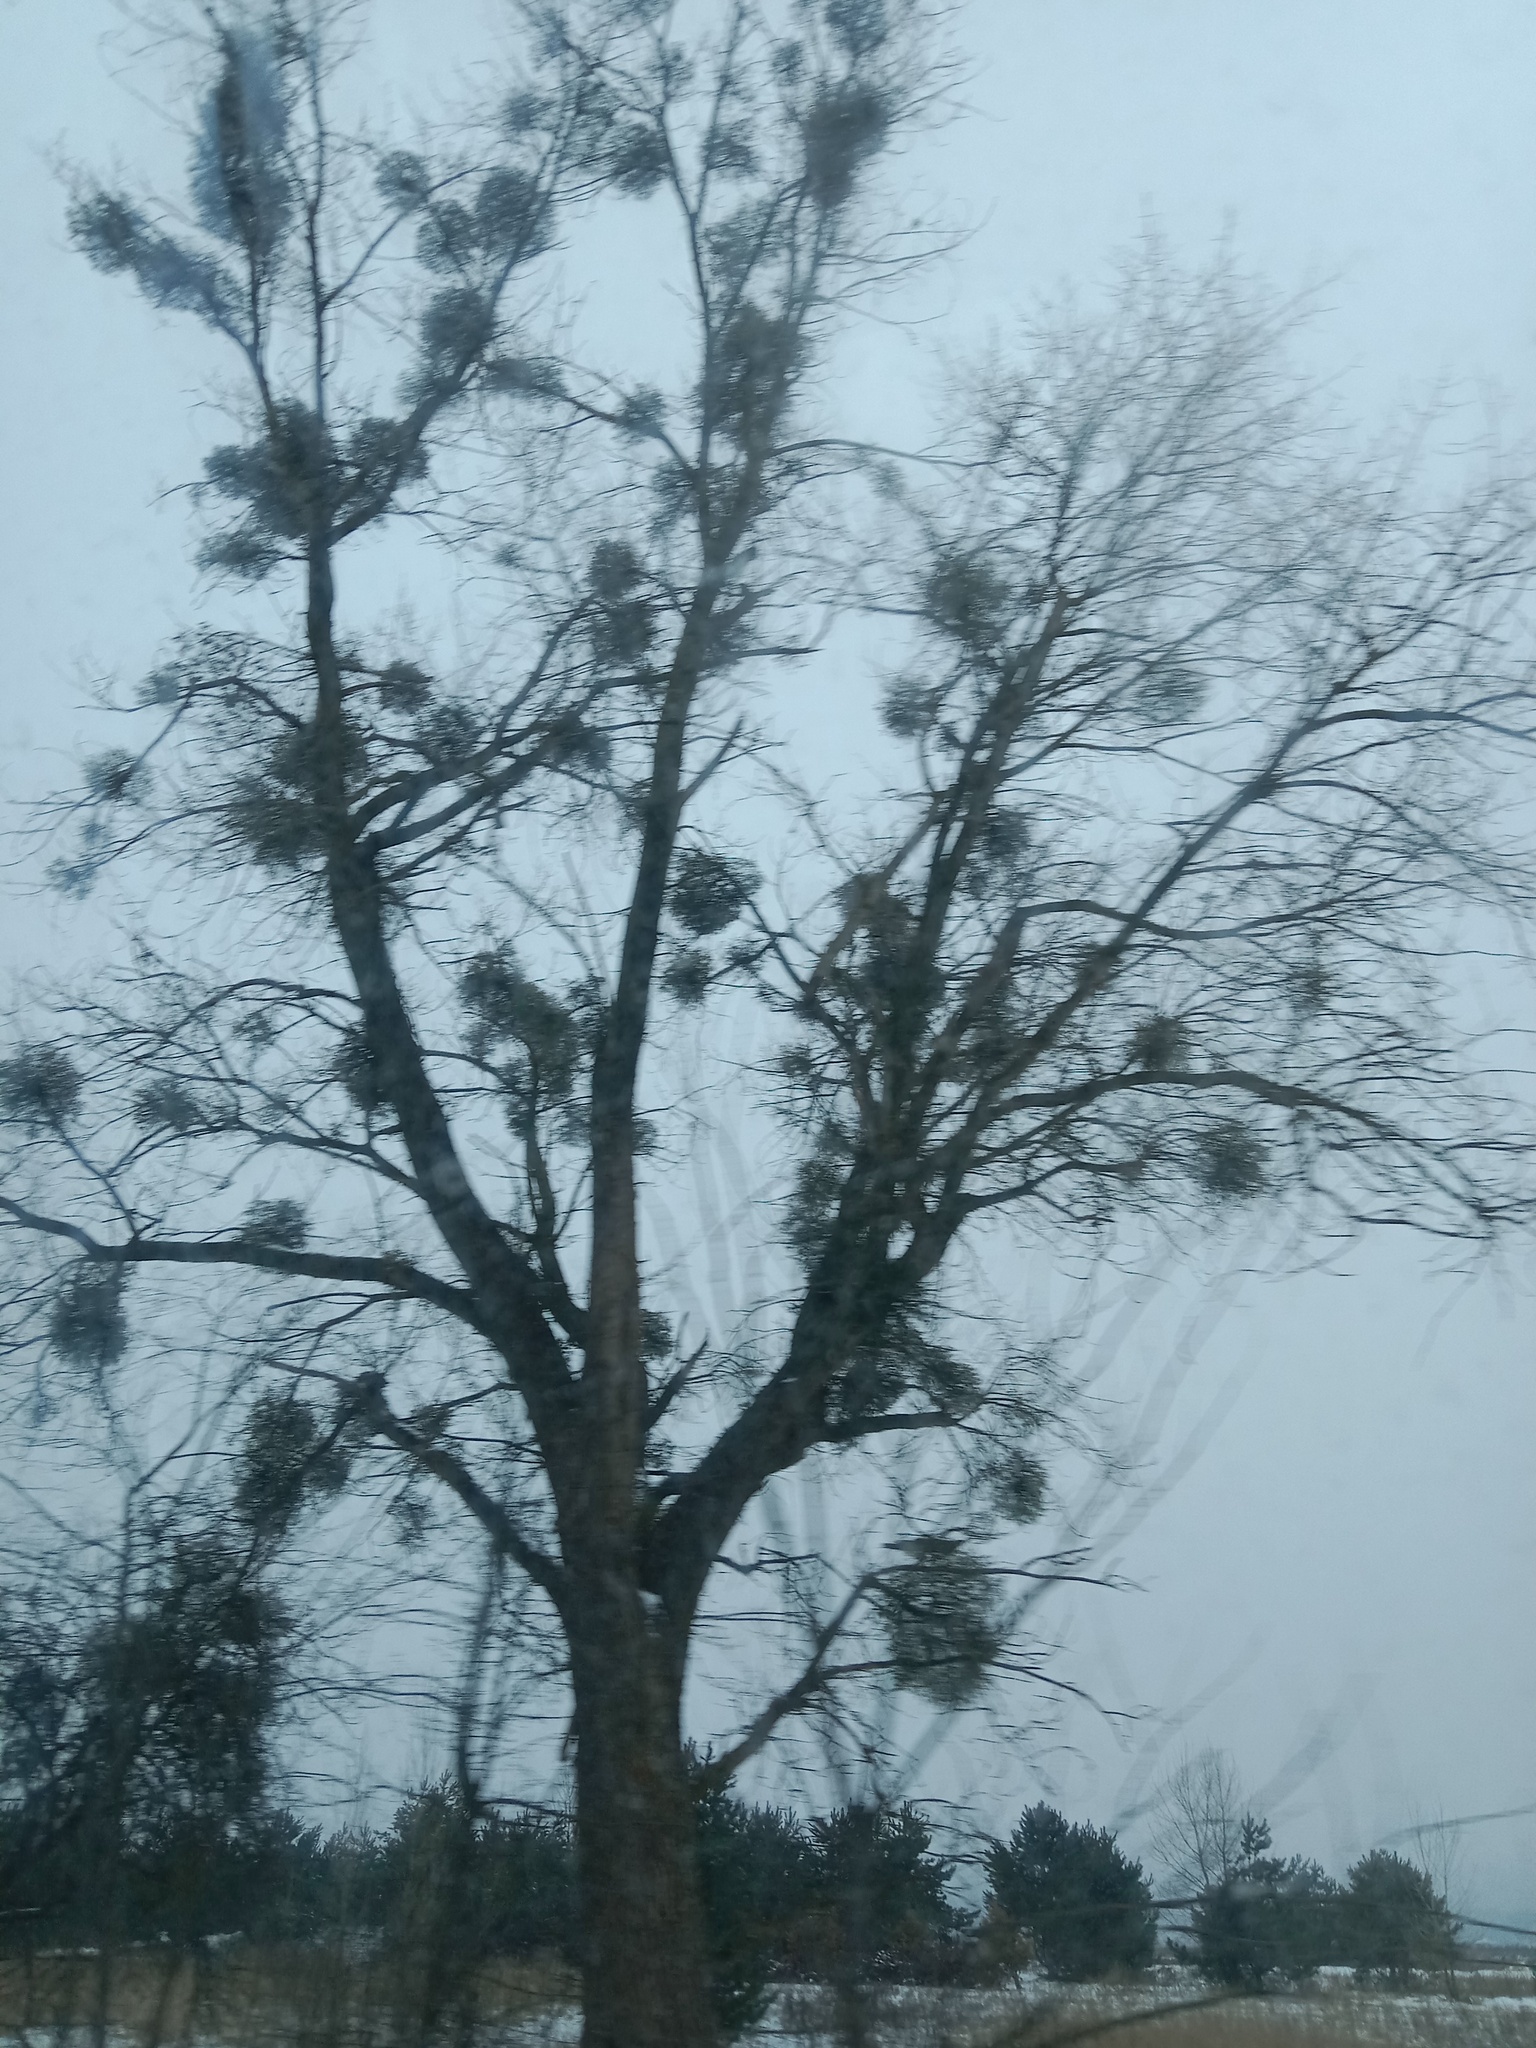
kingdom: Plantae
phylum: Tracheophyta
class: Magnoliopsida
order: Santalales
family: Viscaceae
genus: Viscum
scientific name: Viscum album
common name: Mistletoe
